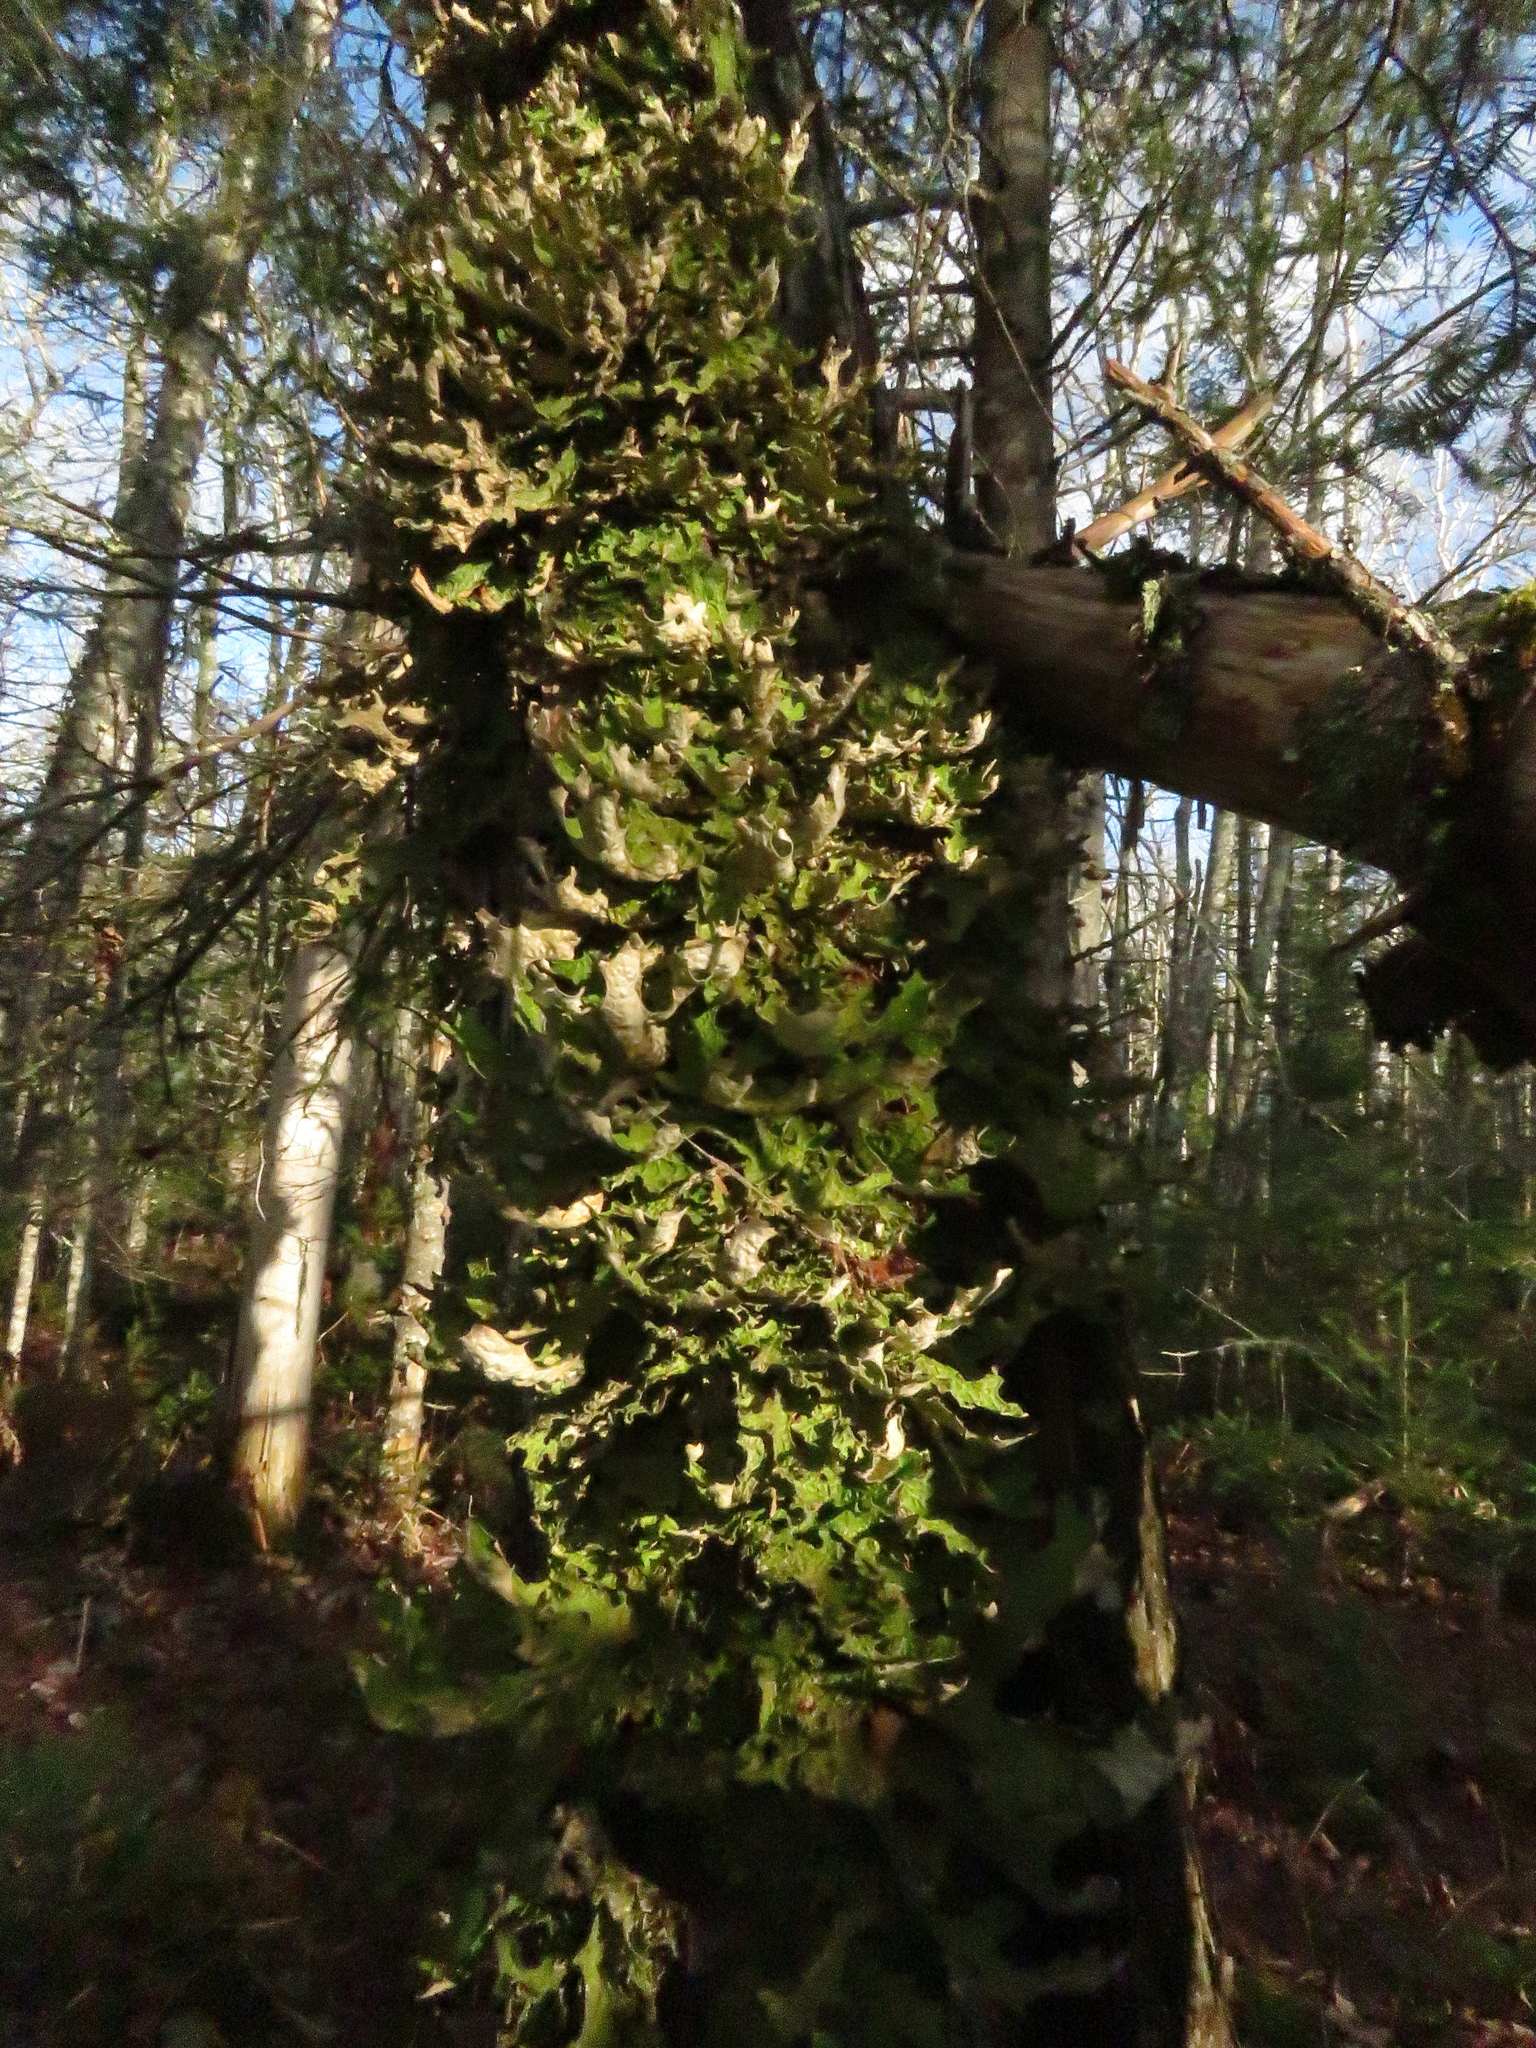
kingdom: Fungi
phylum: Ascomycota
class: Lecanoromycetes
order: Peltigerales
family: Lobariaceae
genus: Lobaria
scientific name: Lobaria pulmonaria
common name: Lungwort
